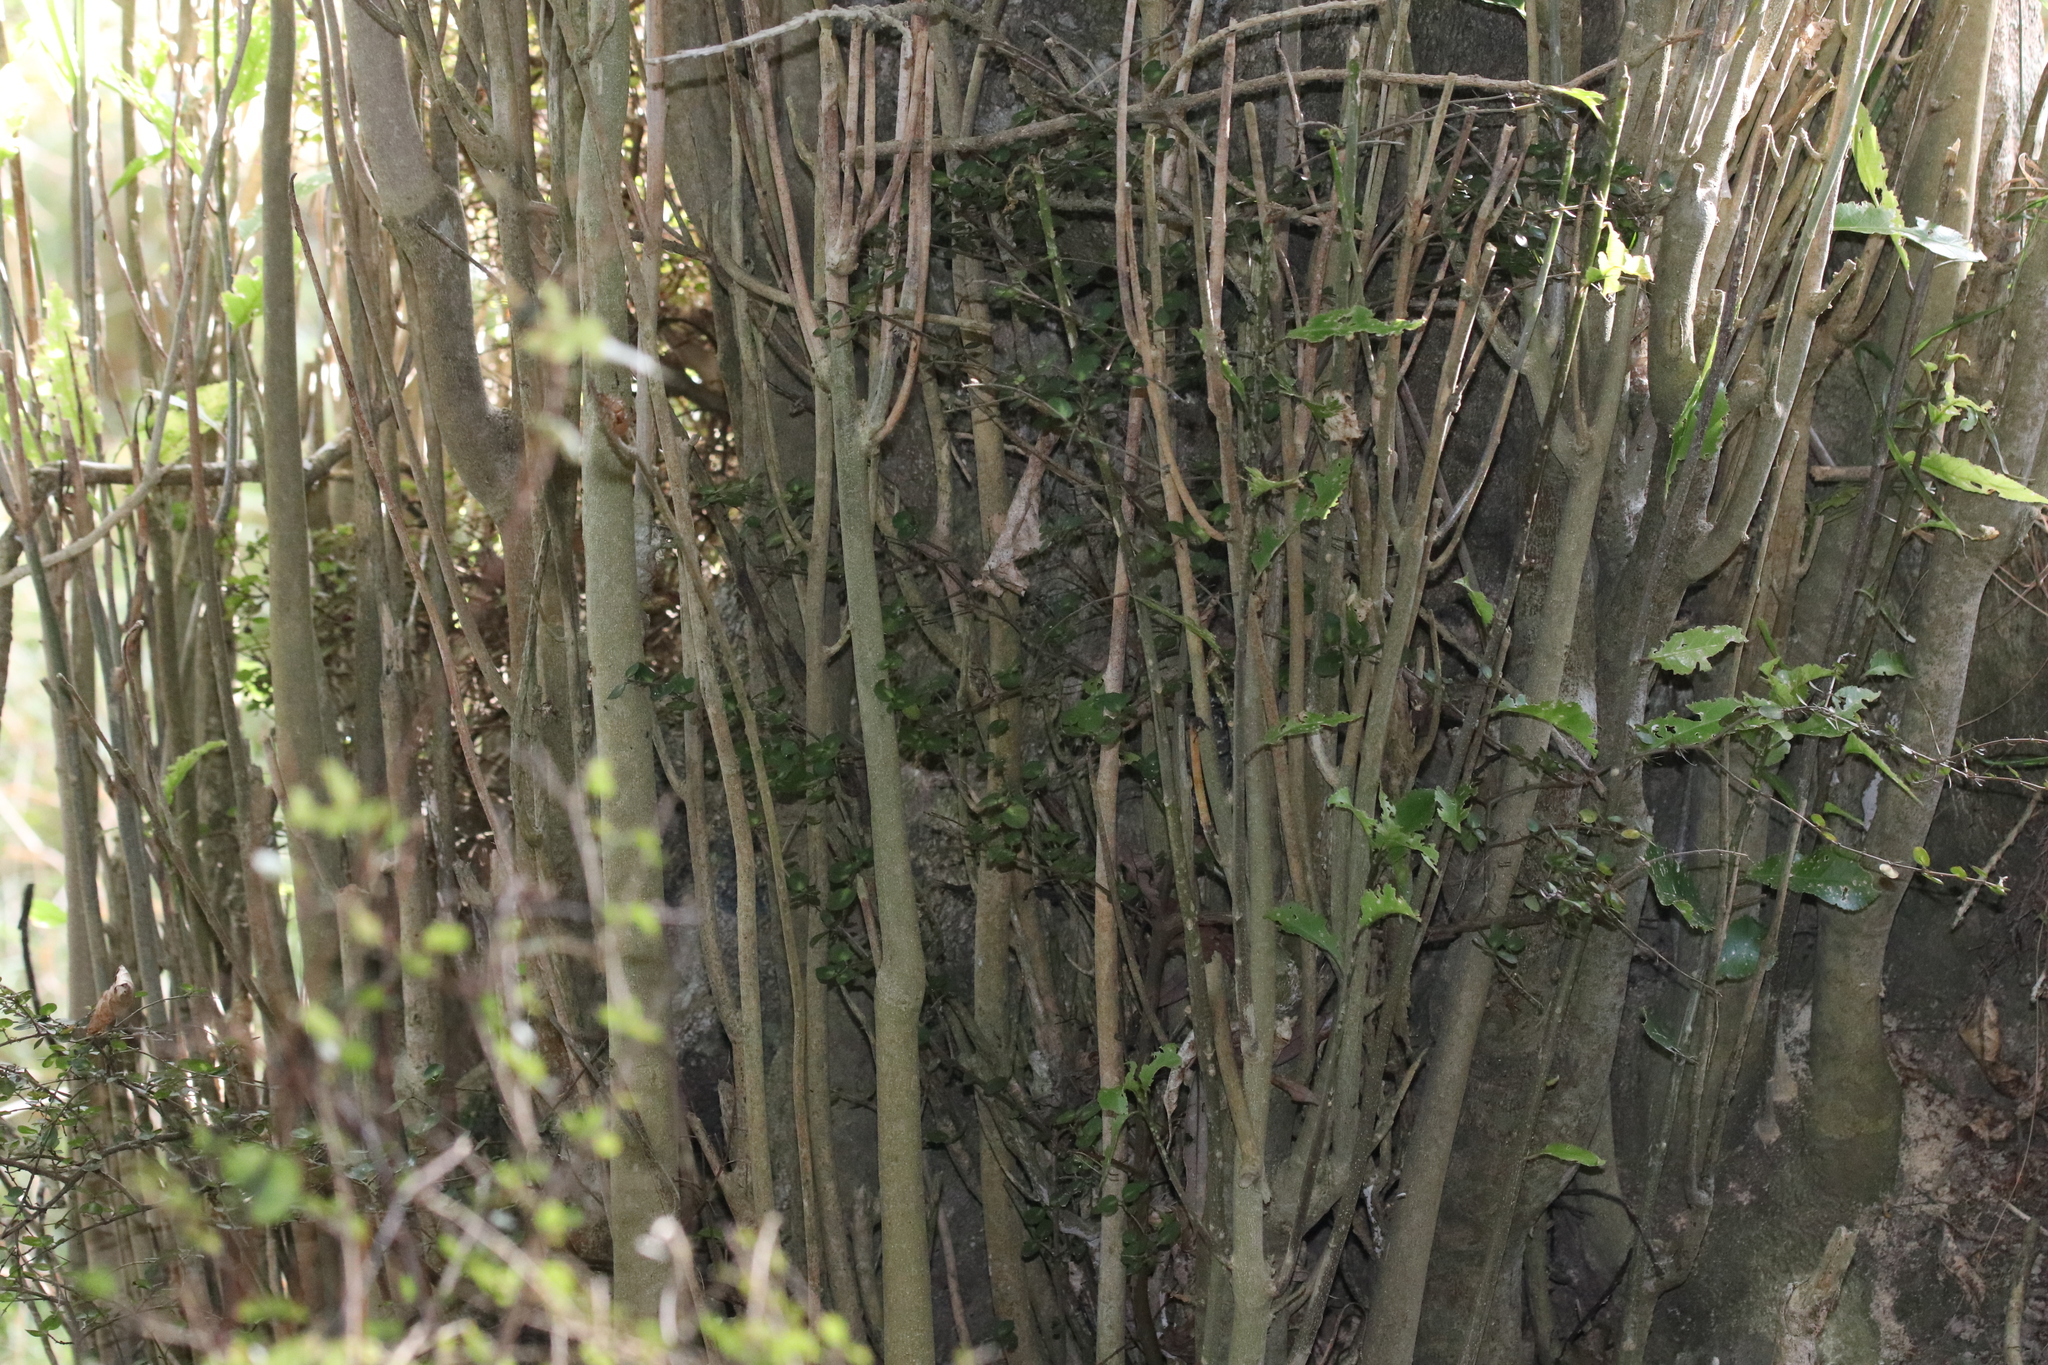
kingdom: Plantae
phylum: Tracheophyta
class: Magnoliopsida
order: Malpighiales
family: Violaceae
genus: Melicytus
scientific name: Melicytus ramiflorus
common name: Mahoe
